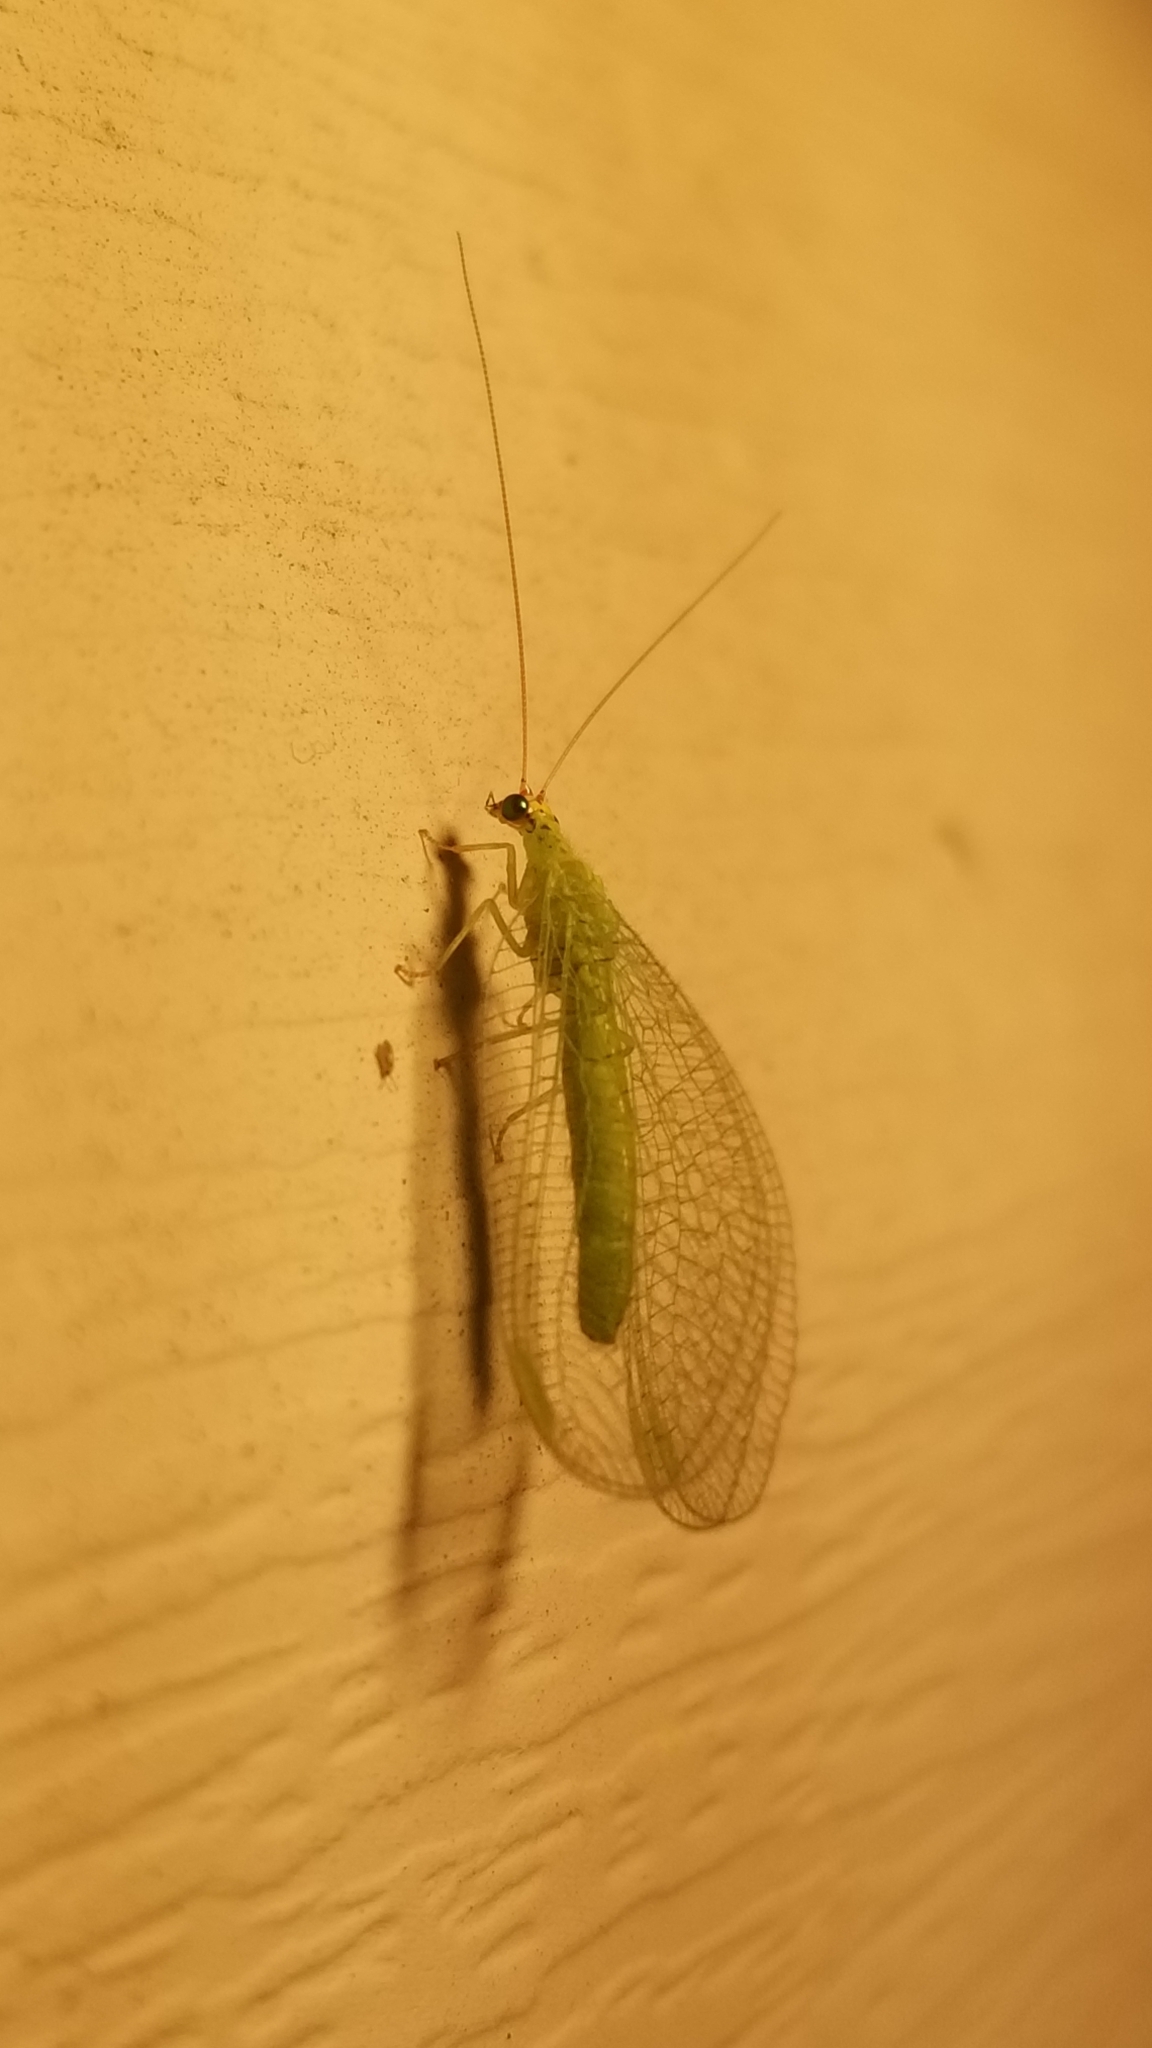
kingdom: Animalia
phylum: Arthropoda
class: Insecta
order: Neuroptera
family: Chrysopidae
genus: Chrysopa
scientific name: Chrysopa oculata
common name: Golden-eyed lacewing
